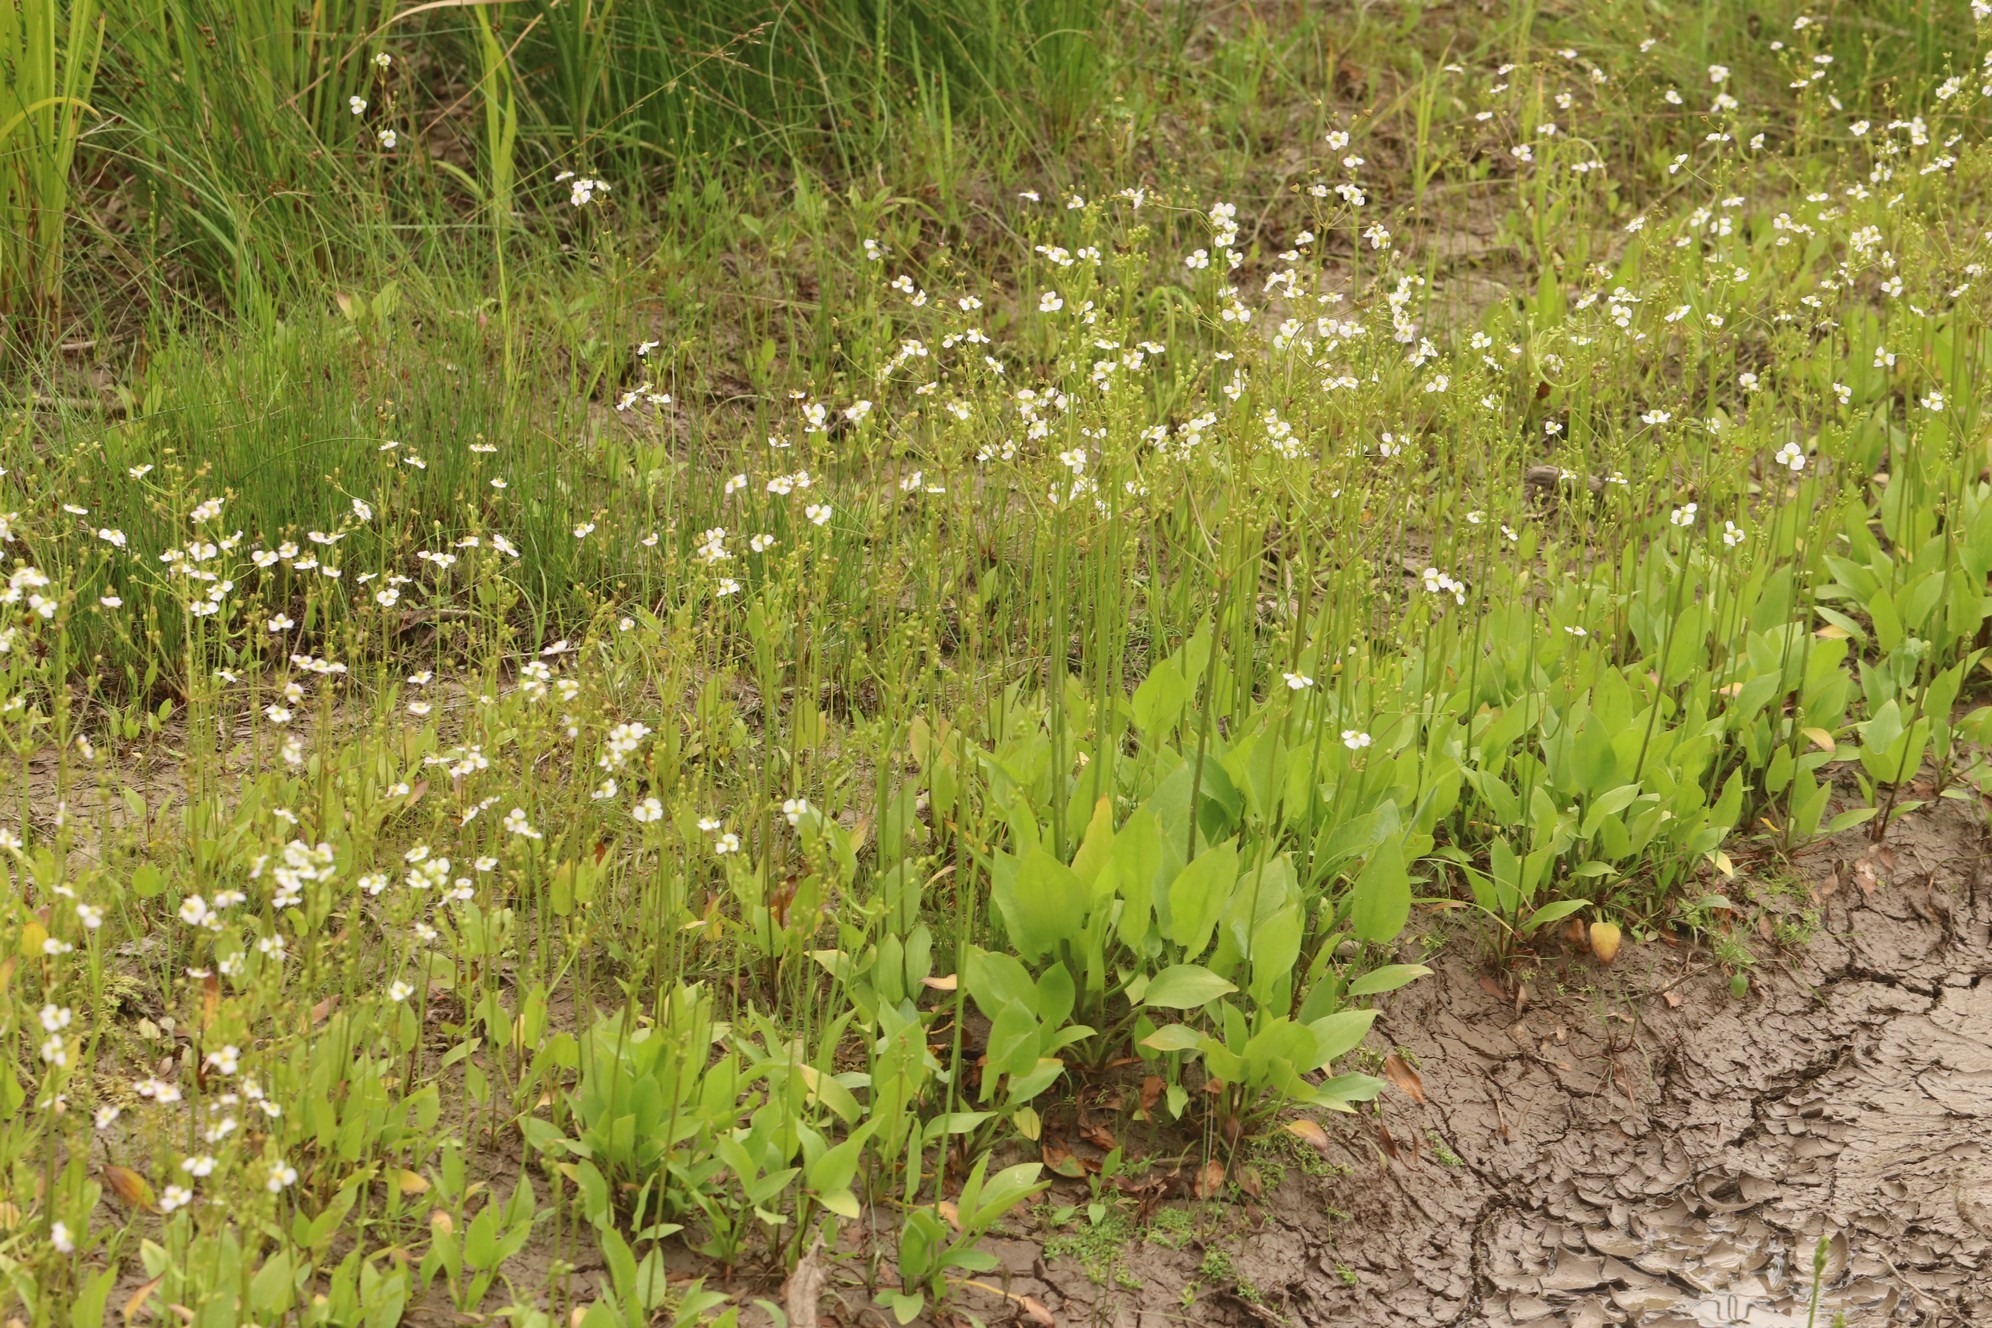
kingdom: Plantae
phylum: Tracheophyta
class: Liliopsida
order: Alismatales
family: Alismataceae
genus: Alisma
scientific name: Alisma plantago-aquatica
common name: Water-plantain
